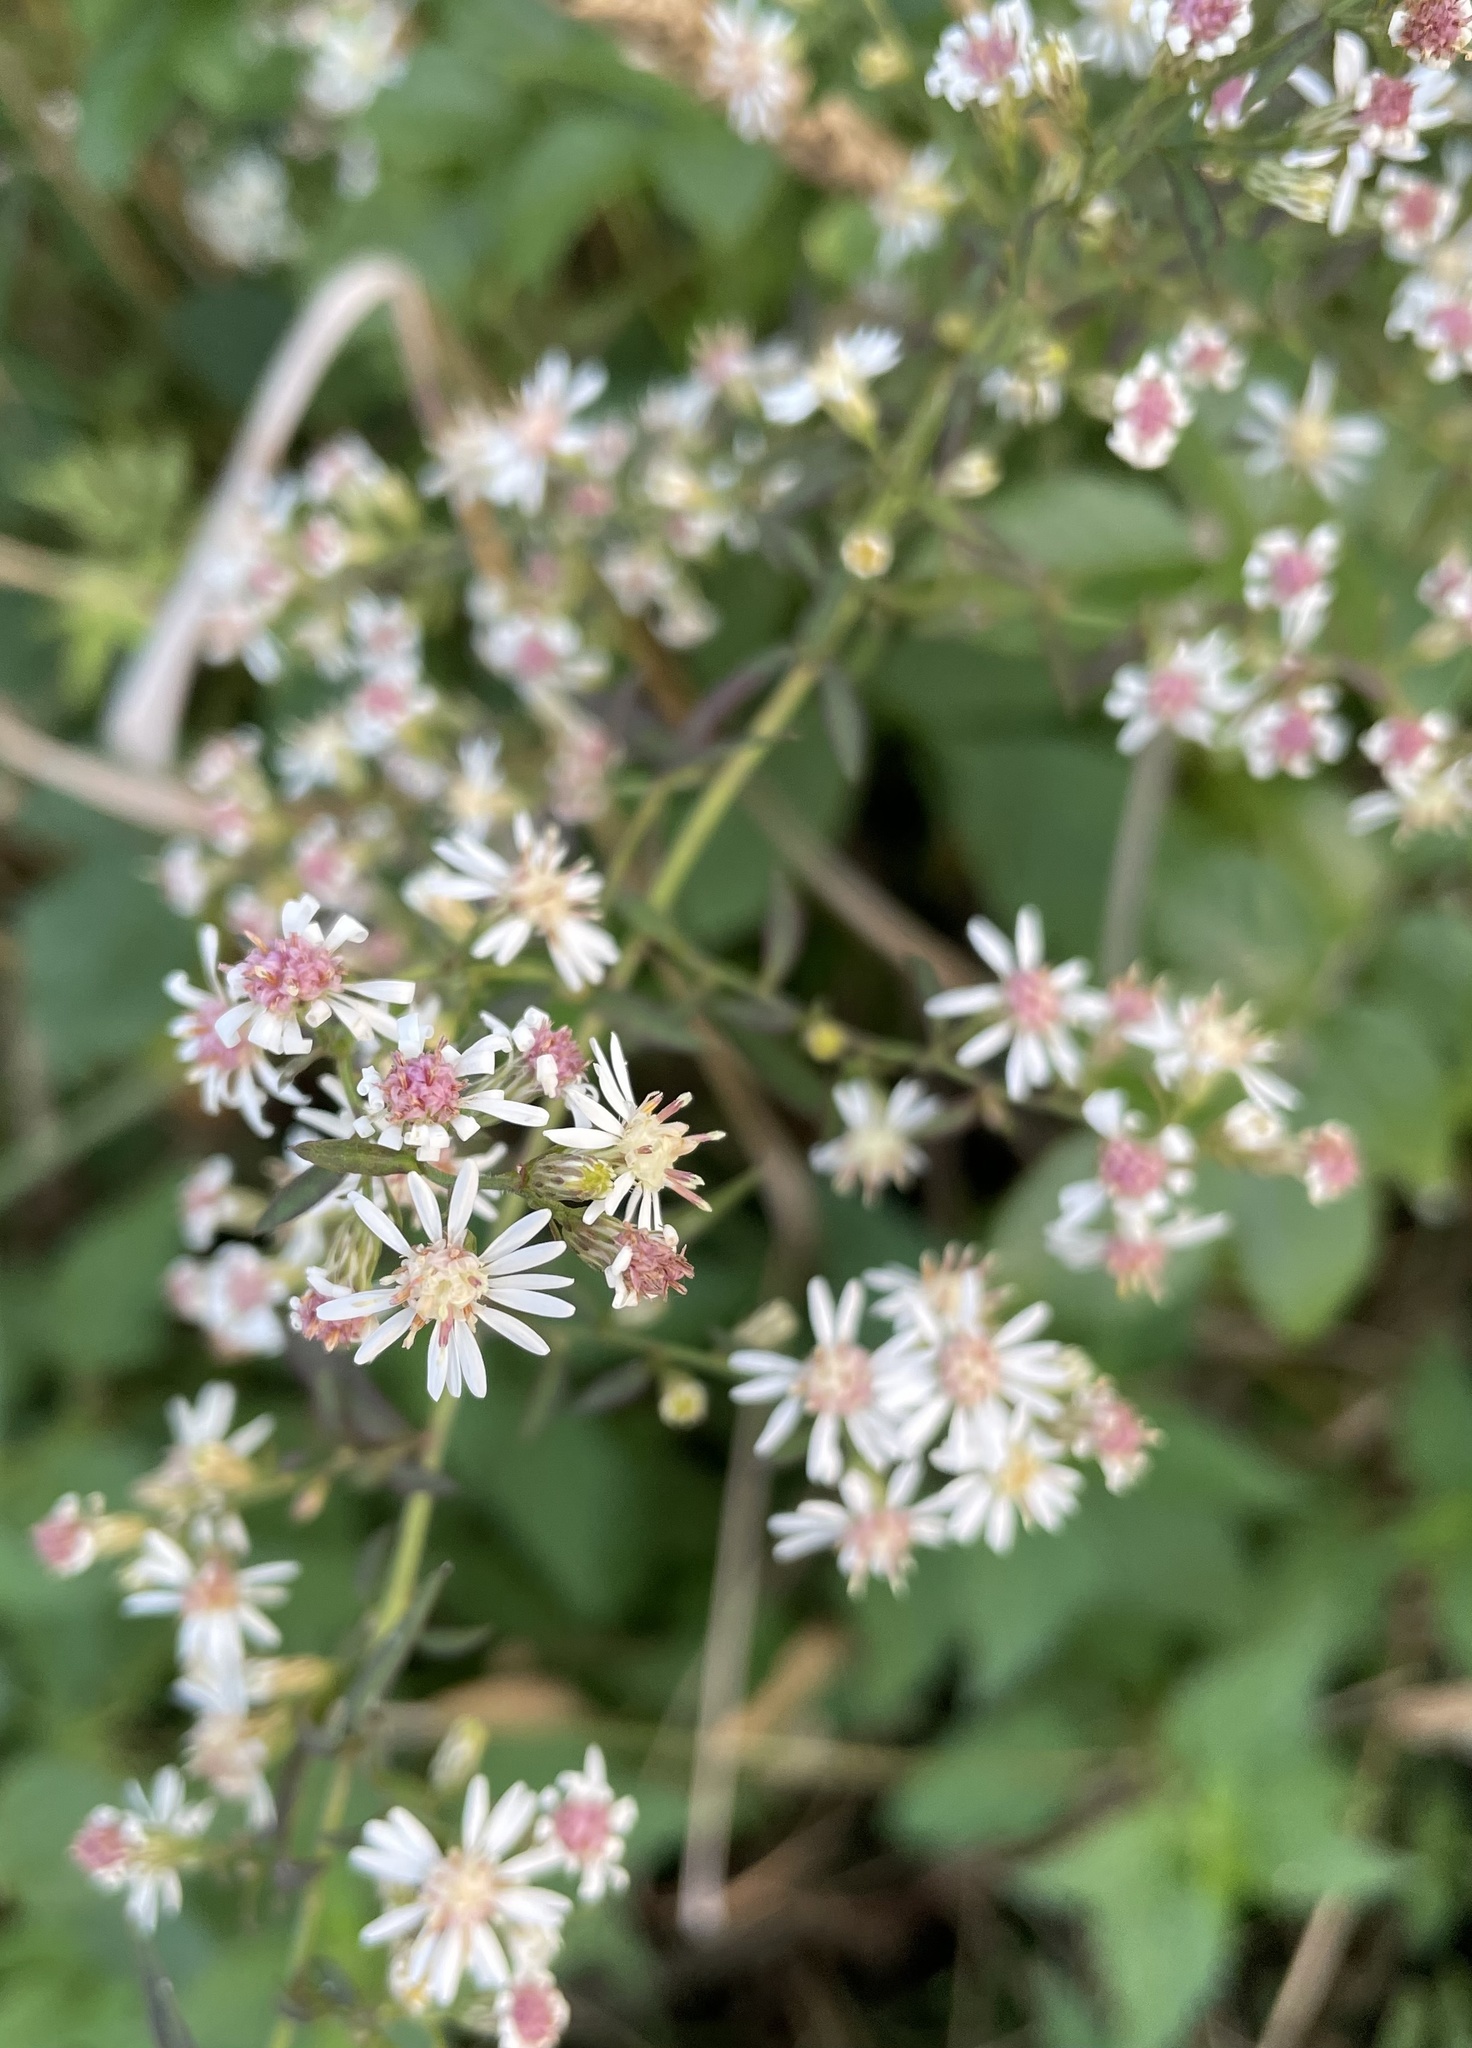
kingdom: Plantae
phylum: Tracheophyta
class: Magnoliopsida
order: Asterales
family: Asteraceae
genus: Symphyotrichum
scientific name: Symphyotrichum lateriflorum
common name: Calico aster
